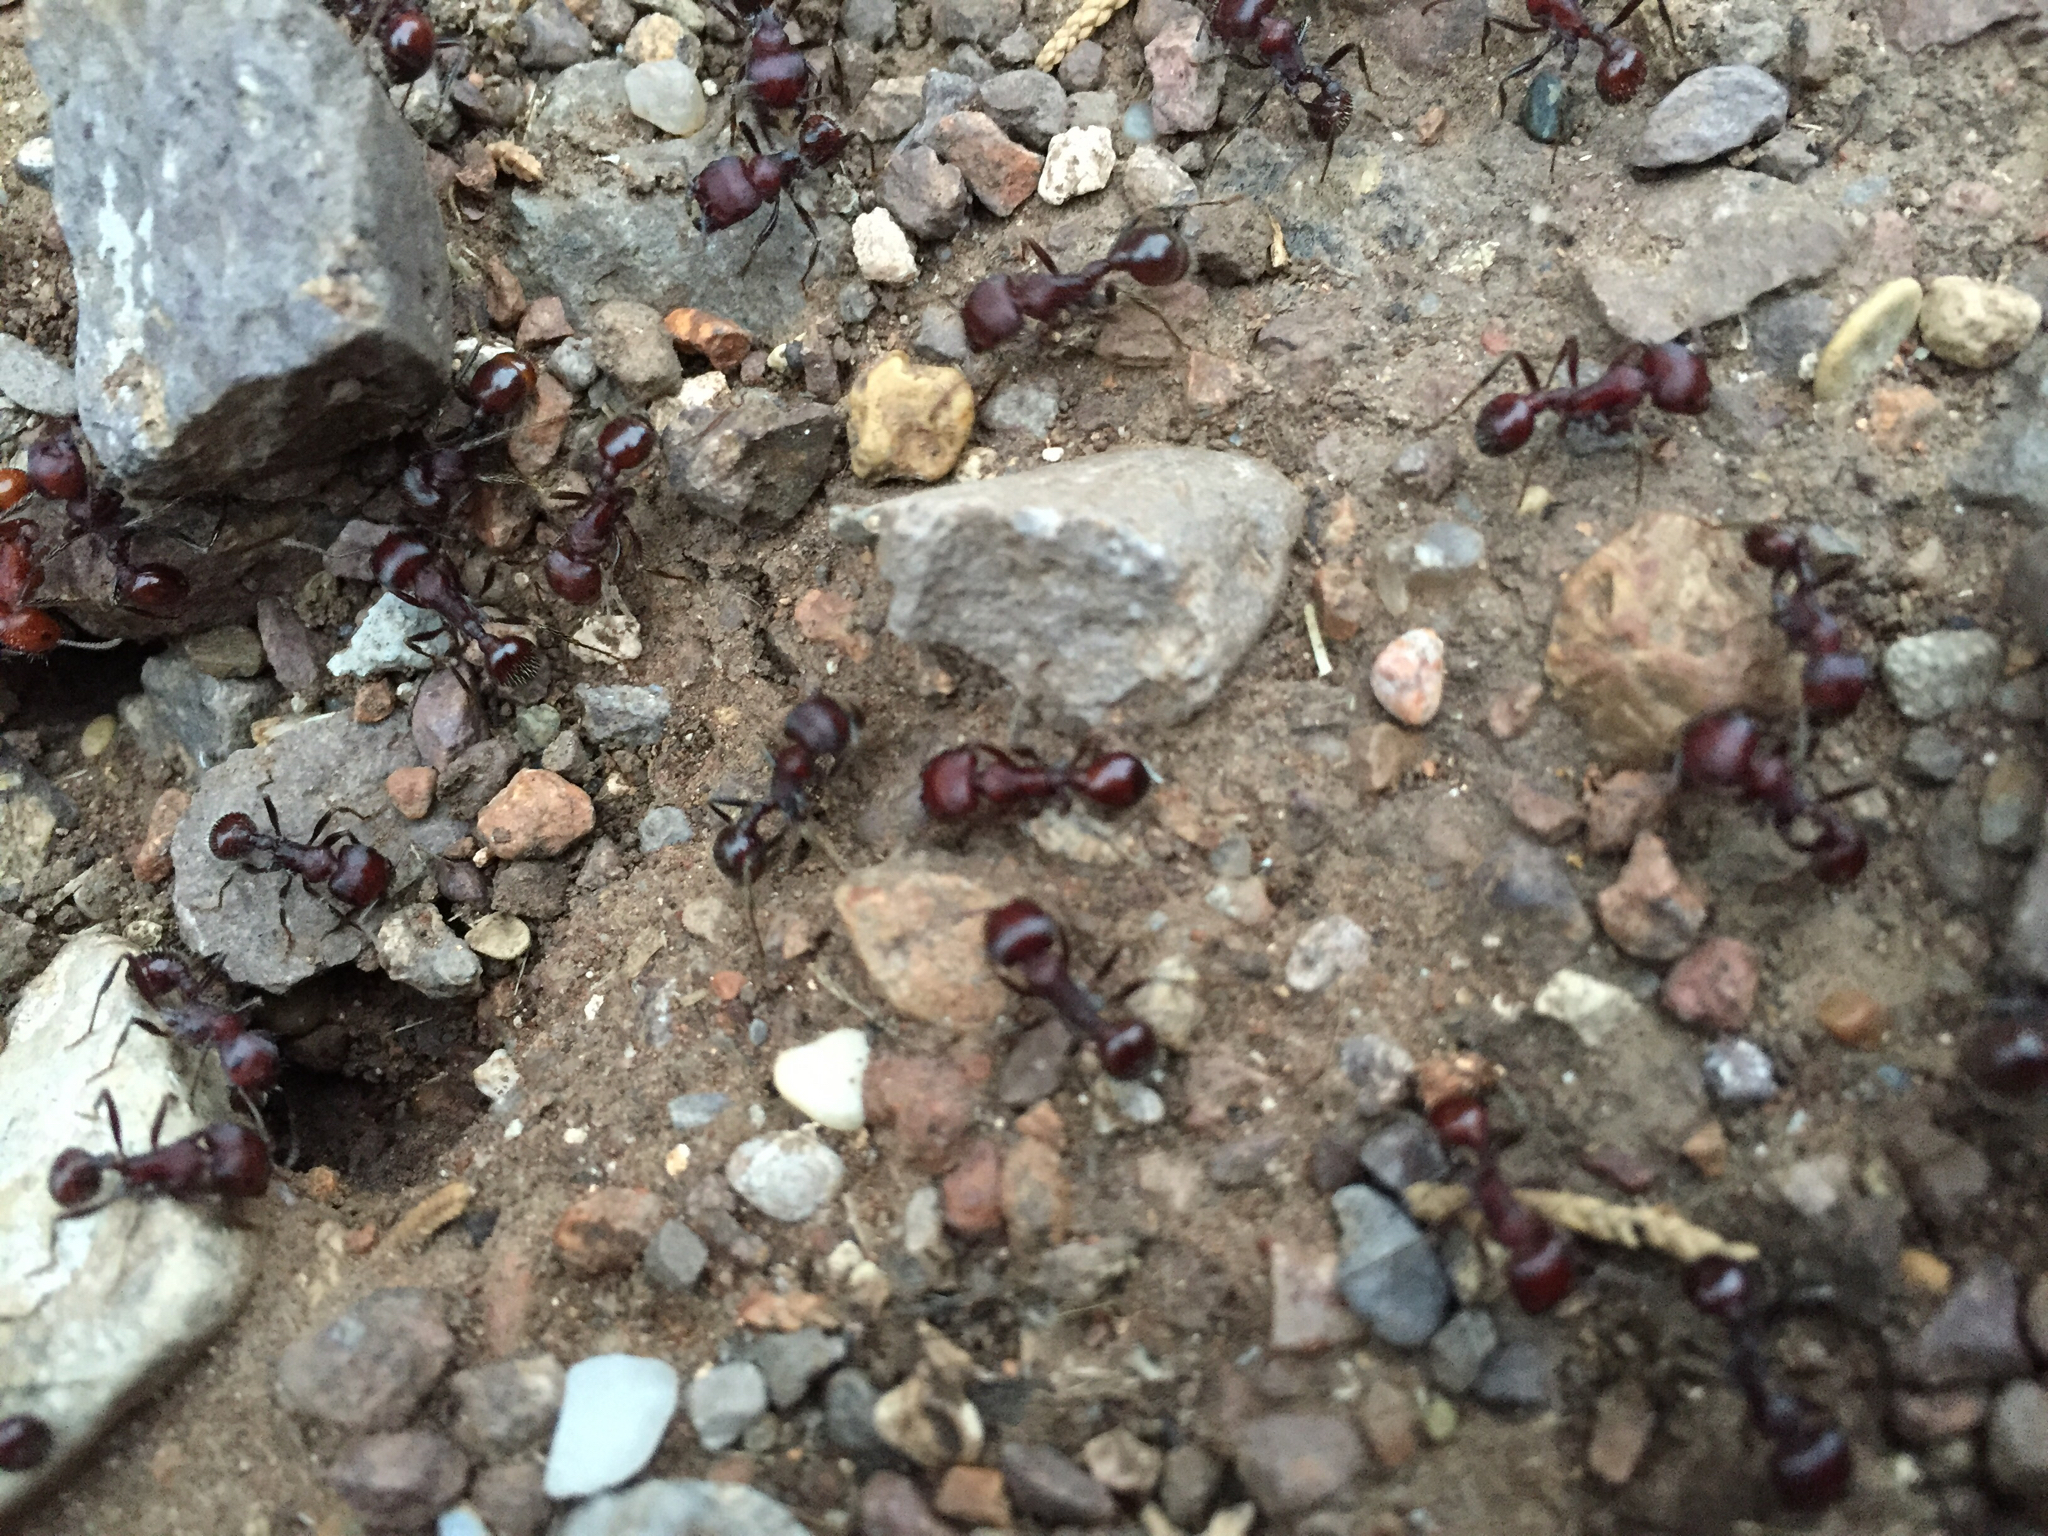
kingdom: Animalia
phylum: Arthropoda
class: Insecta
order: Hymenoptera
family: Formicidae
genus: Pogonomyrmex
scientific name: Pogonomyrmex
